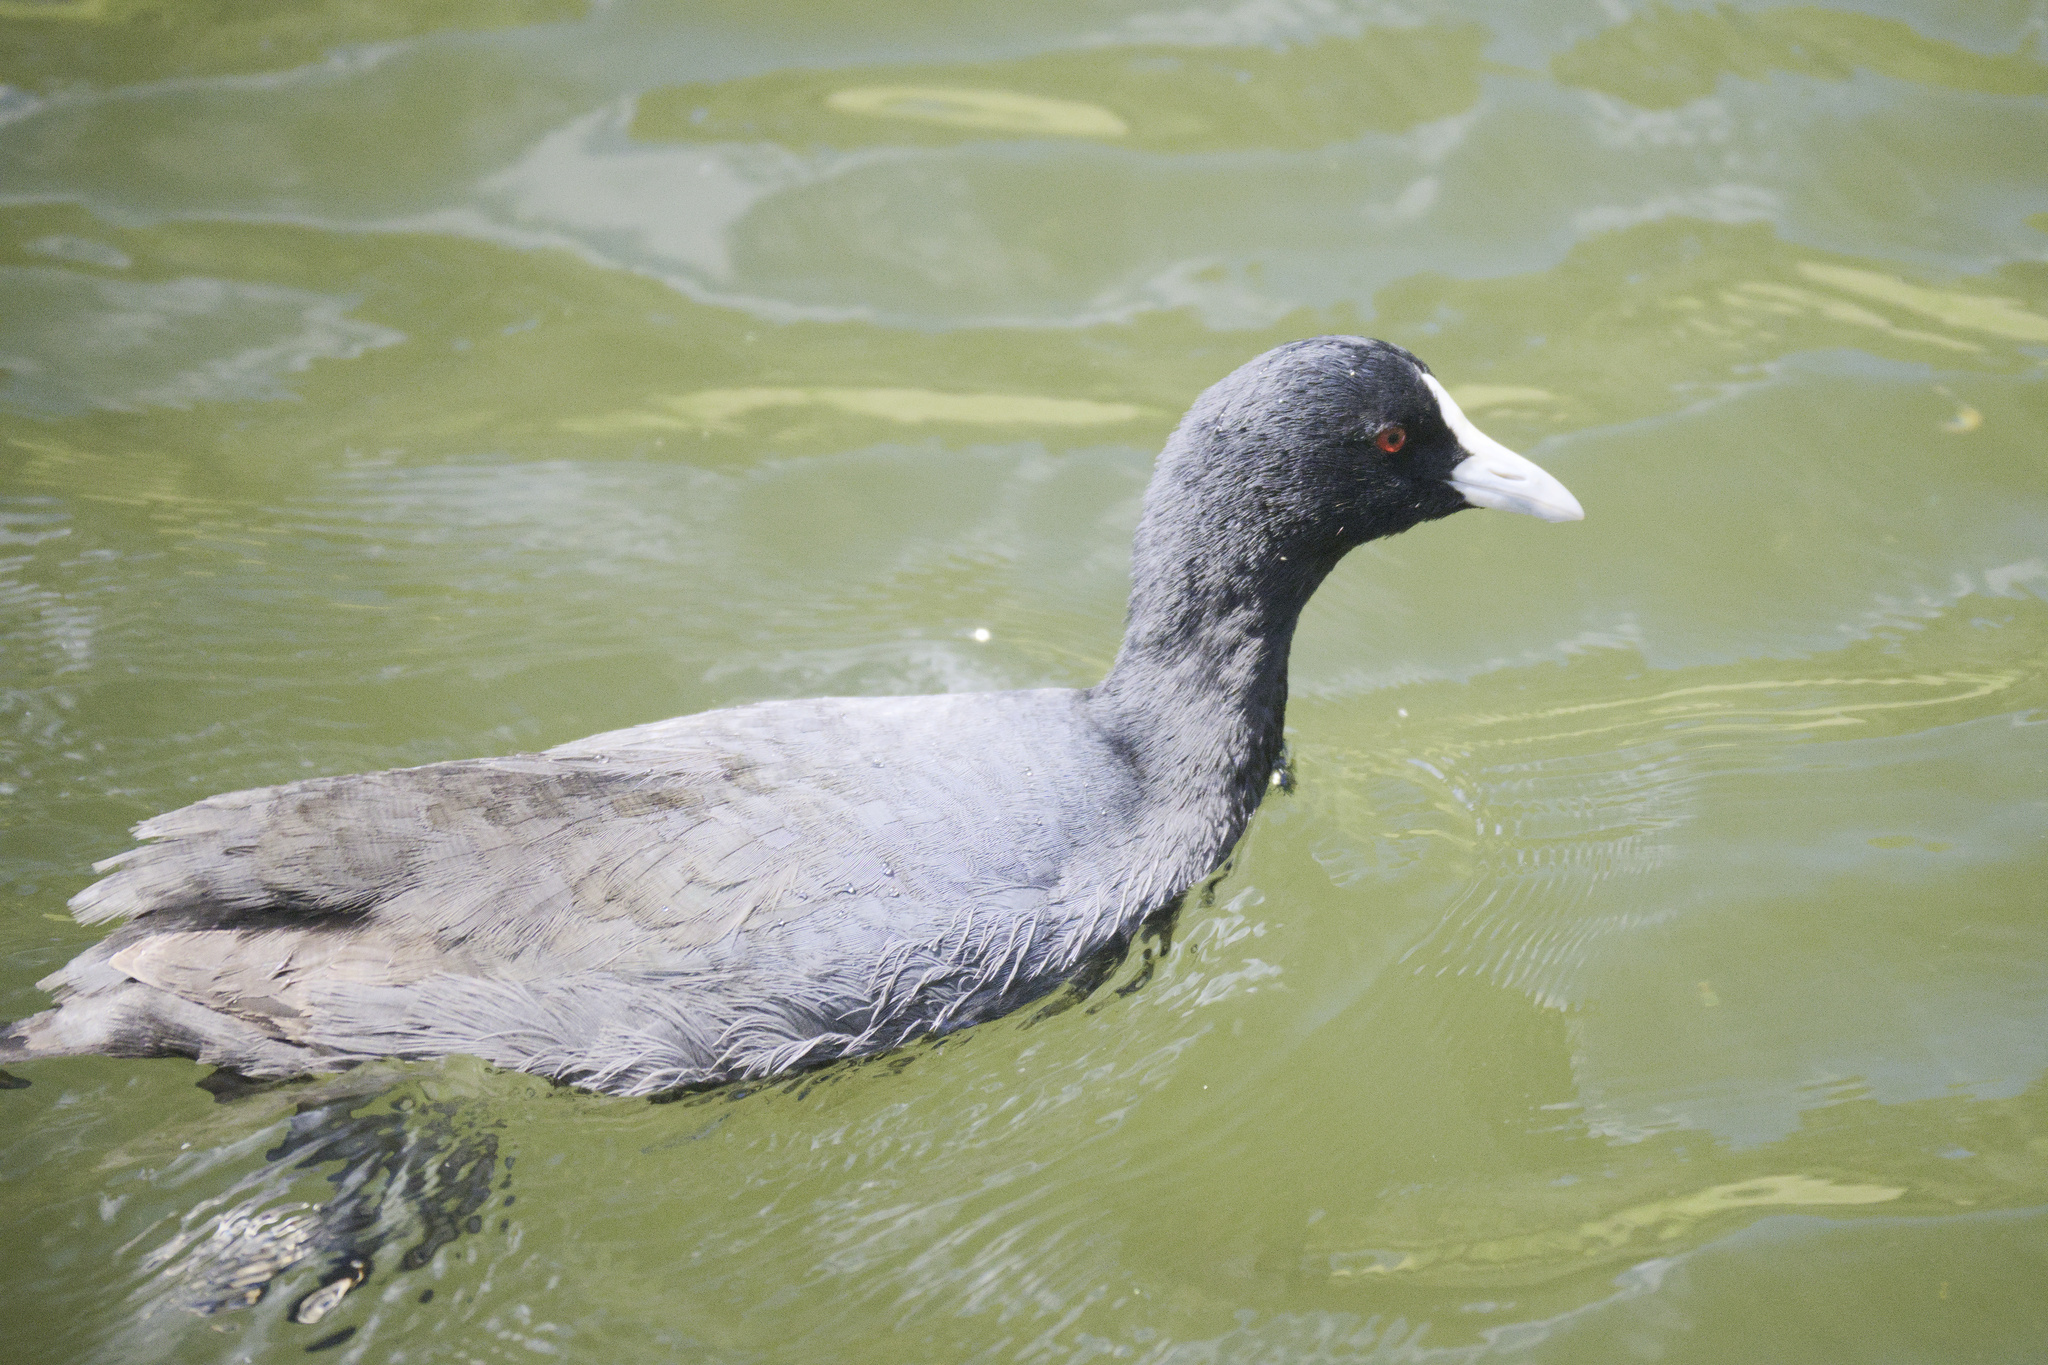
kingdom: Animalia
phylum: Chordata
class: Aves
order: Gruiformes
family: Rallidae
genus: Fulica
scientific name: Fulica atra
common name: Eurasian coot
